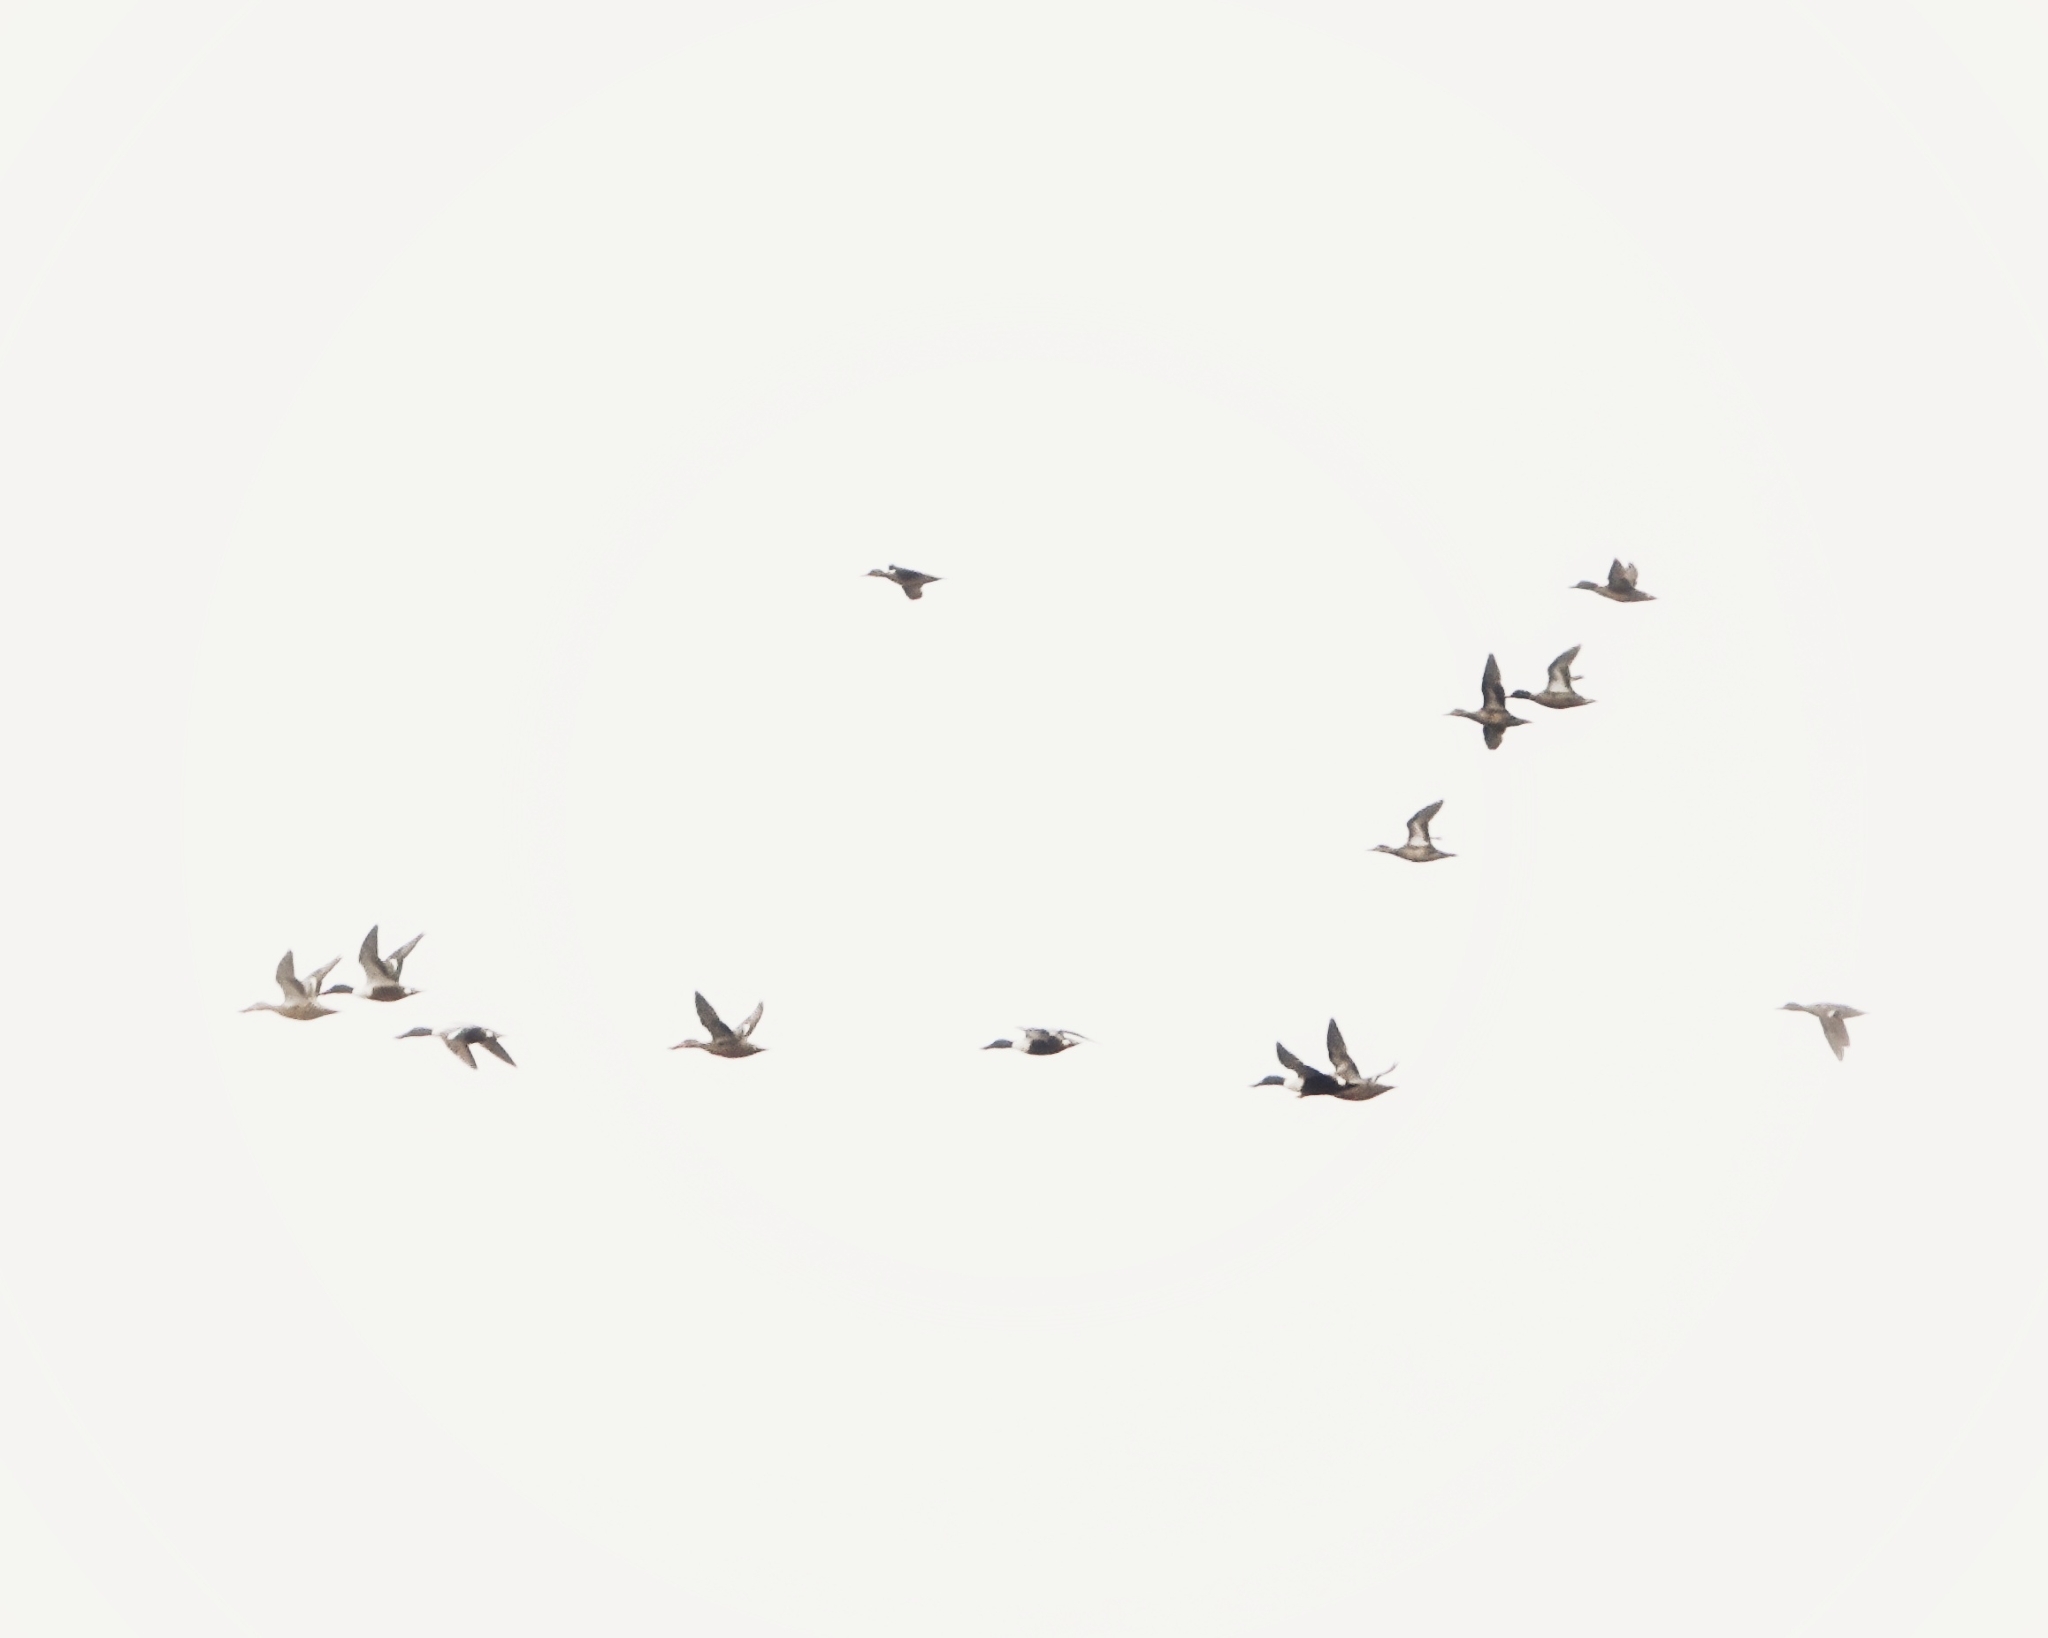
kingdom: Animalia
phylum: Chordata
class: Aves
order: Anseriformes
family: Anatidae
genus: Spatula
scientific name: Spatula clypeata
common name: Northern shoveler
